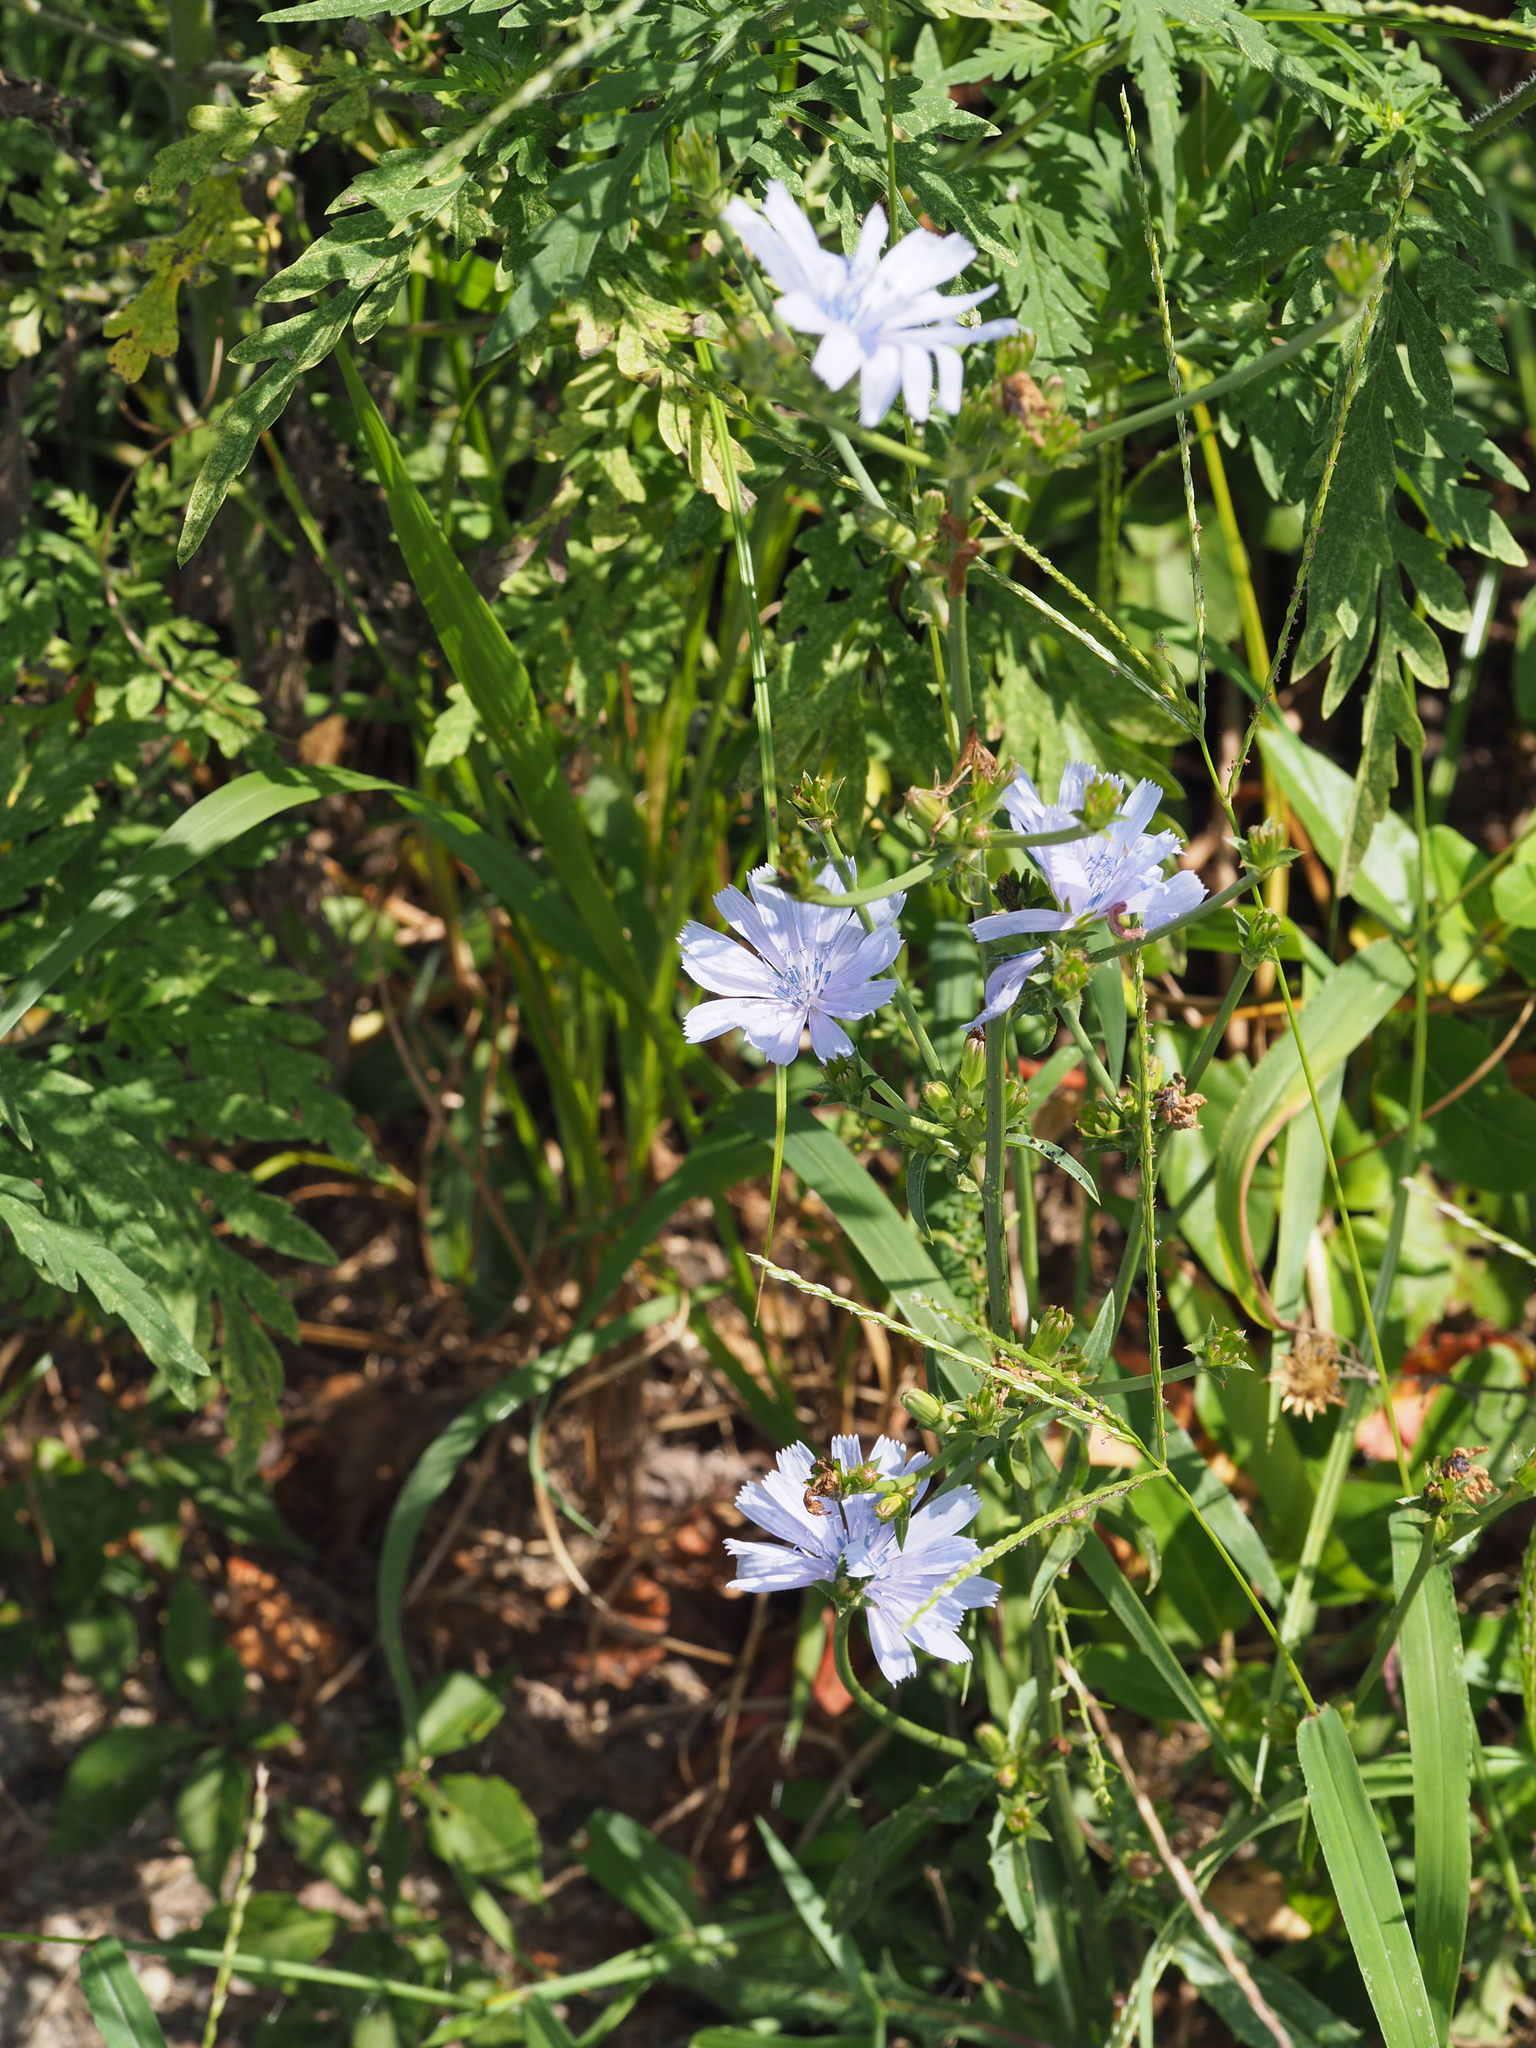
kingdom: Plantae
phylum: Tracheophyta
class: Magnoliopsida
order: Asterales
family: Asteraceae
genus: Cichorium
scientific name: Cichorium intybus
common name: Chicory
